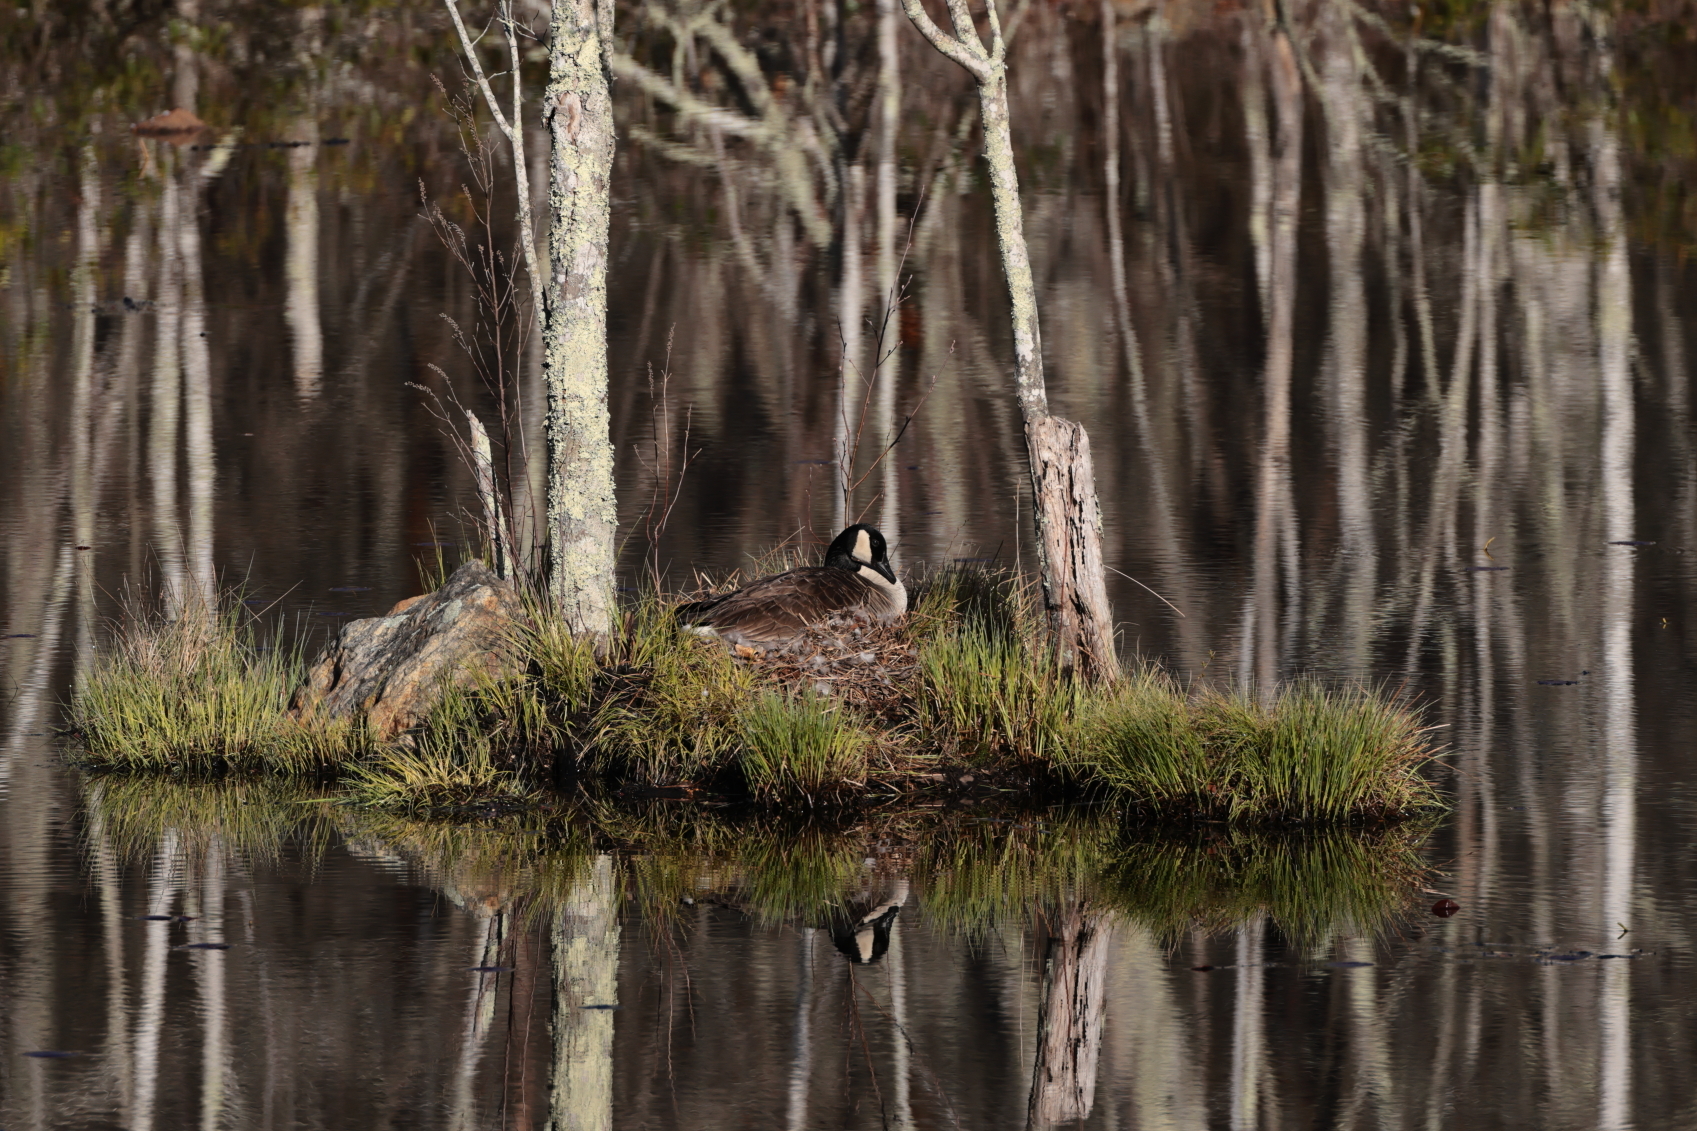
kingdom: Animalia
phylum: Chordata
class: Aves
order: Anseriformes
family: Anatidae
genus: Branta
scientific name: Branta canadensis
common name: Canada goose
